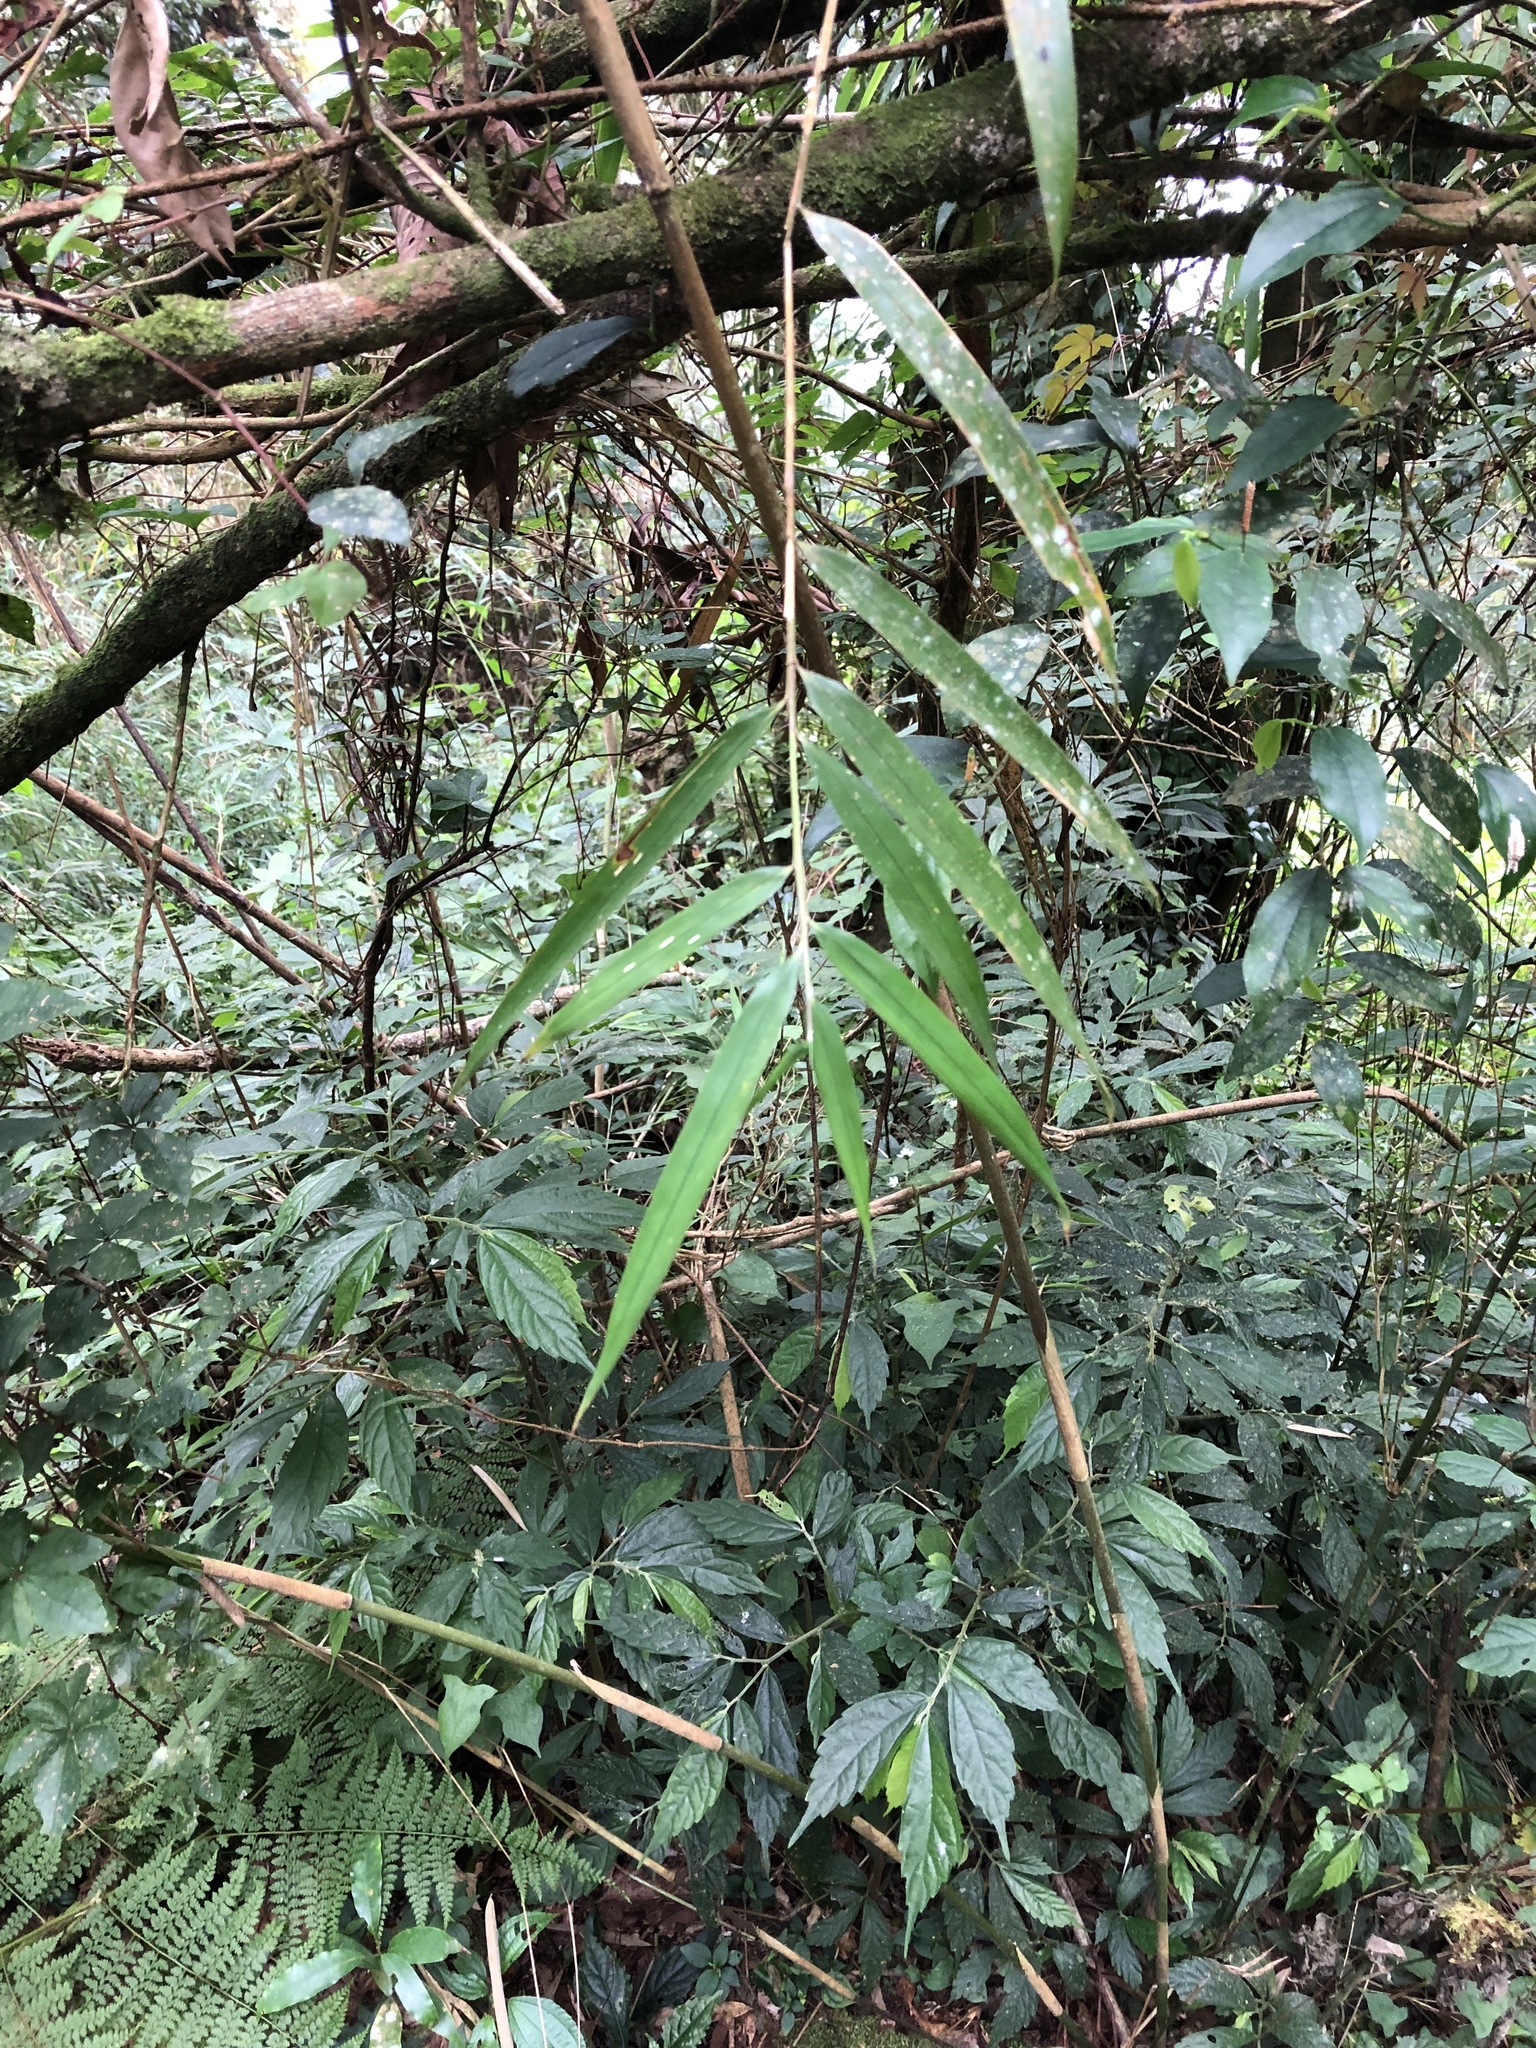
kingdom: Plantae
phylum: Tracheophyta
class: Liliopsida
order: Poales
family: Poaceae
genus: Yushania
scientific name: Yushania niitakayamensis
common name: Yushan cane
